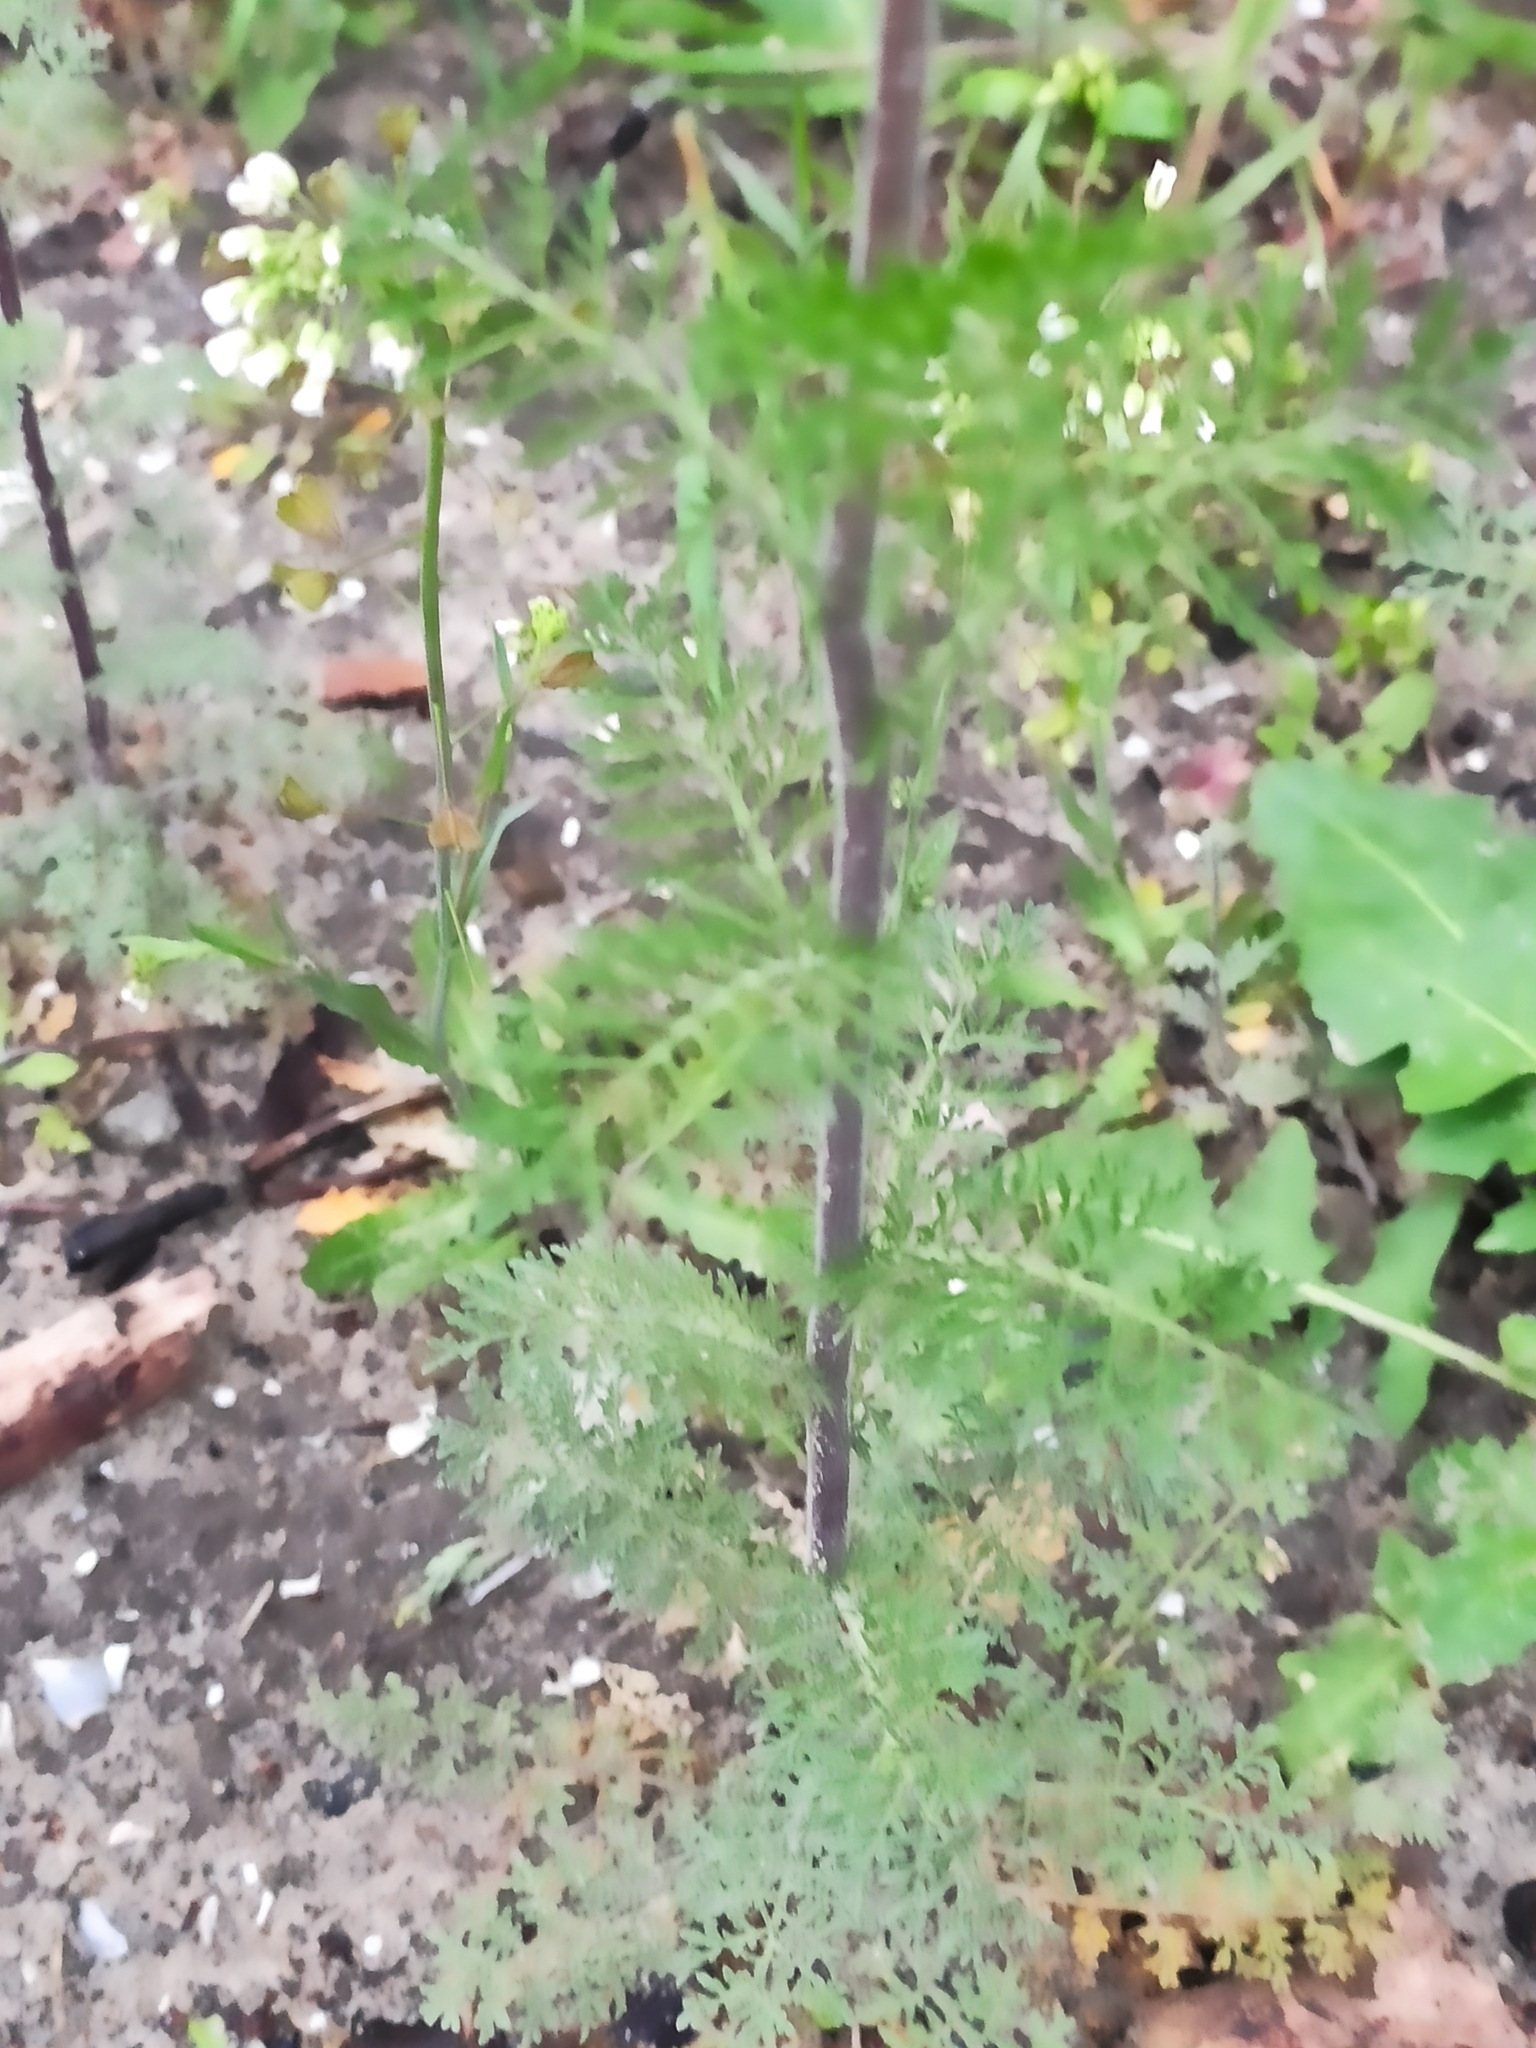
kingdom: Plantae
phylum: Tracheophyta
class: Magnoliopsida
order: Brassicales
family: Brassicaceae
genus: Descurainia
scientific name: Descurainia sophia
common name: Flixweed
